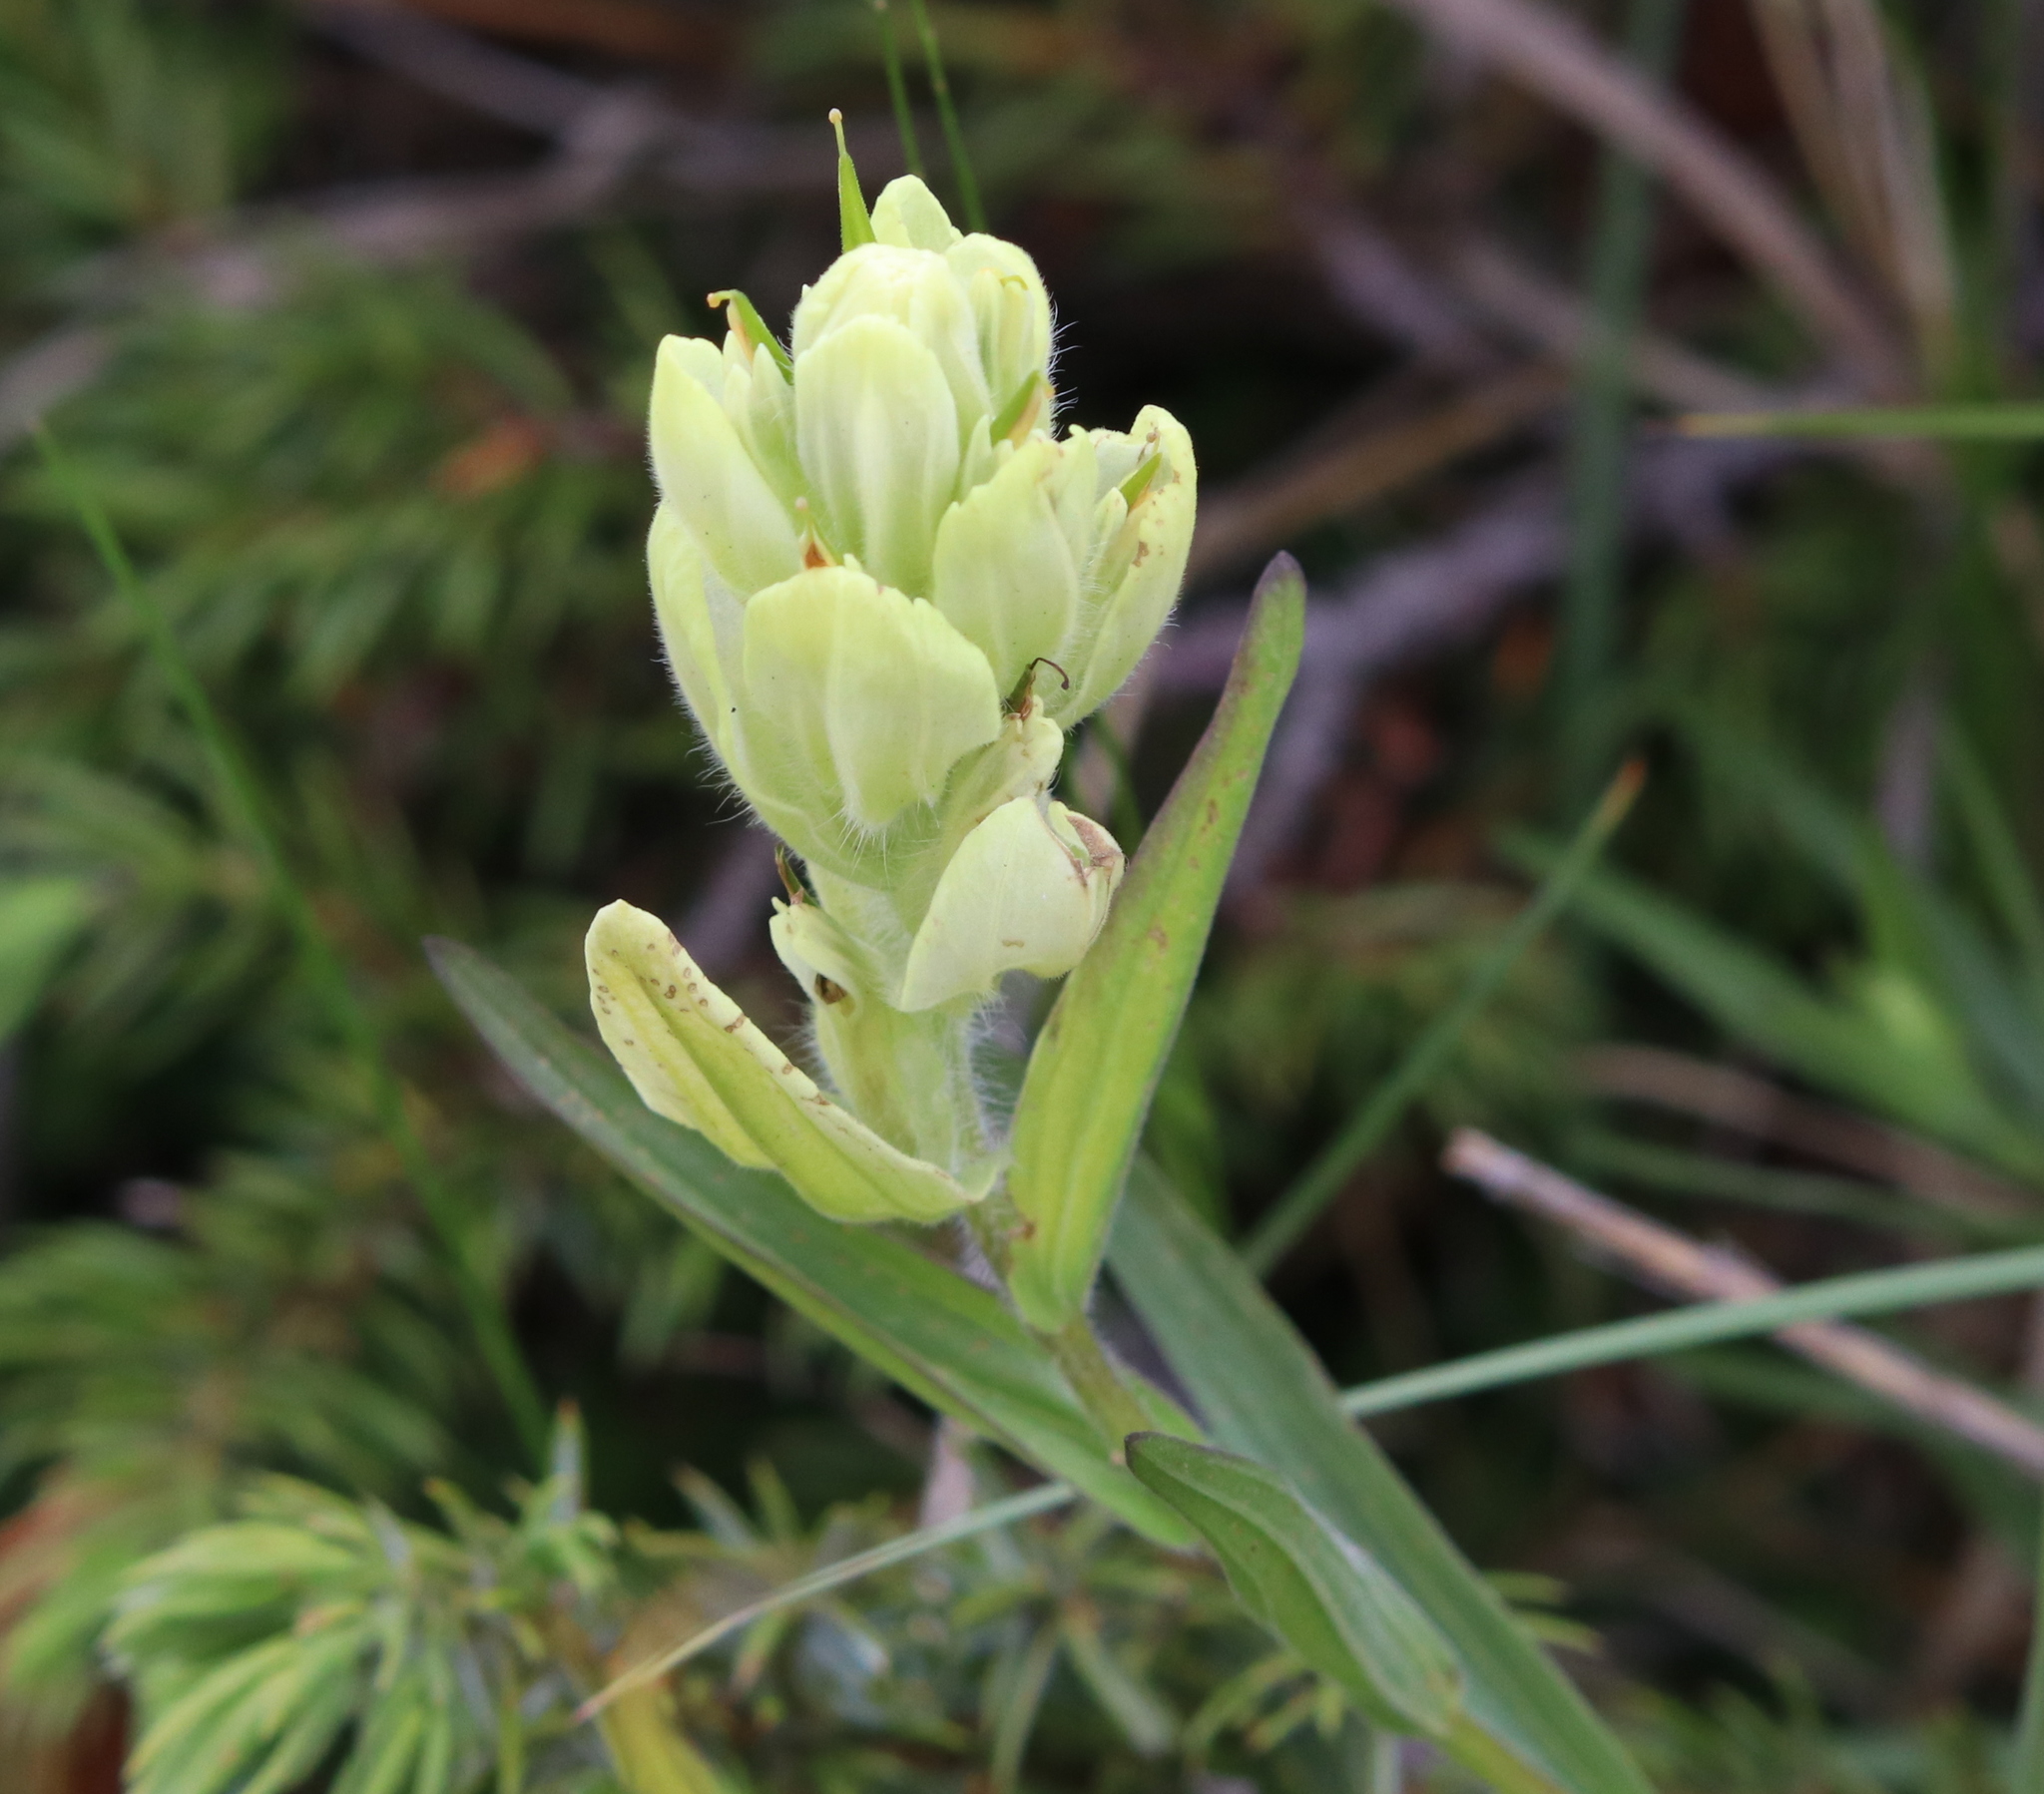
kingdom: Plantae
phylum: Tracheophyta
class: Magnoliopsida
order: Lamiales
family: Orobanchaceae
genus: Castilleja
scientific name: Castilleja occidentalis
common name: Western paintbrush
